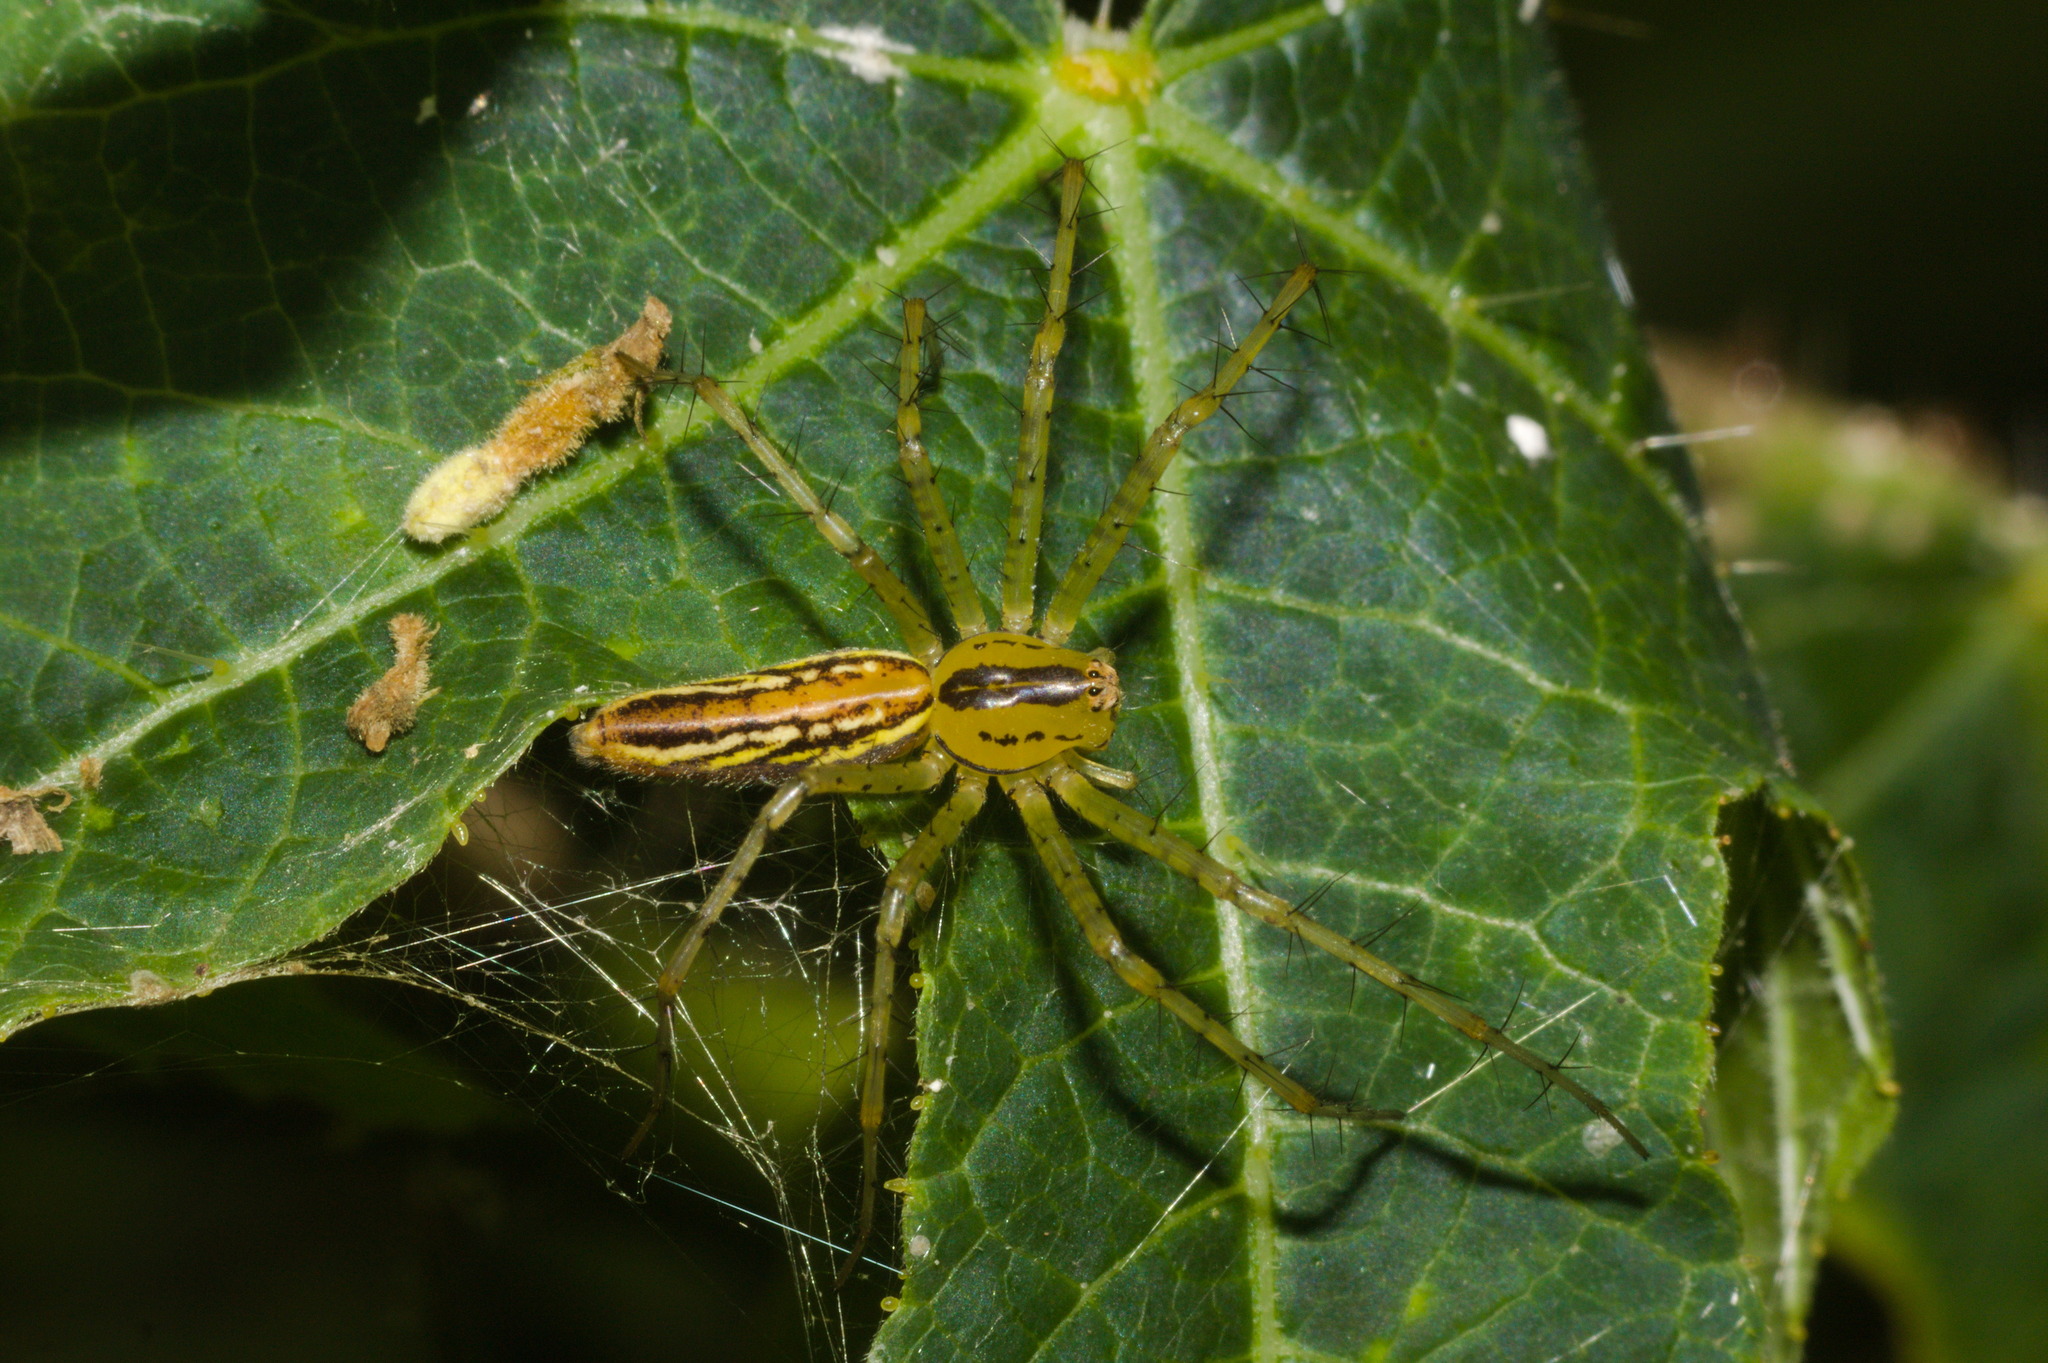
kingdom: Animalia
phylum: Arthropoda
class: Arachnida
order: Araneae
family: Oxyopidae
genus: Peucetia
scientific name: Peucetia rubrolineata
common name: Lynx spiders
